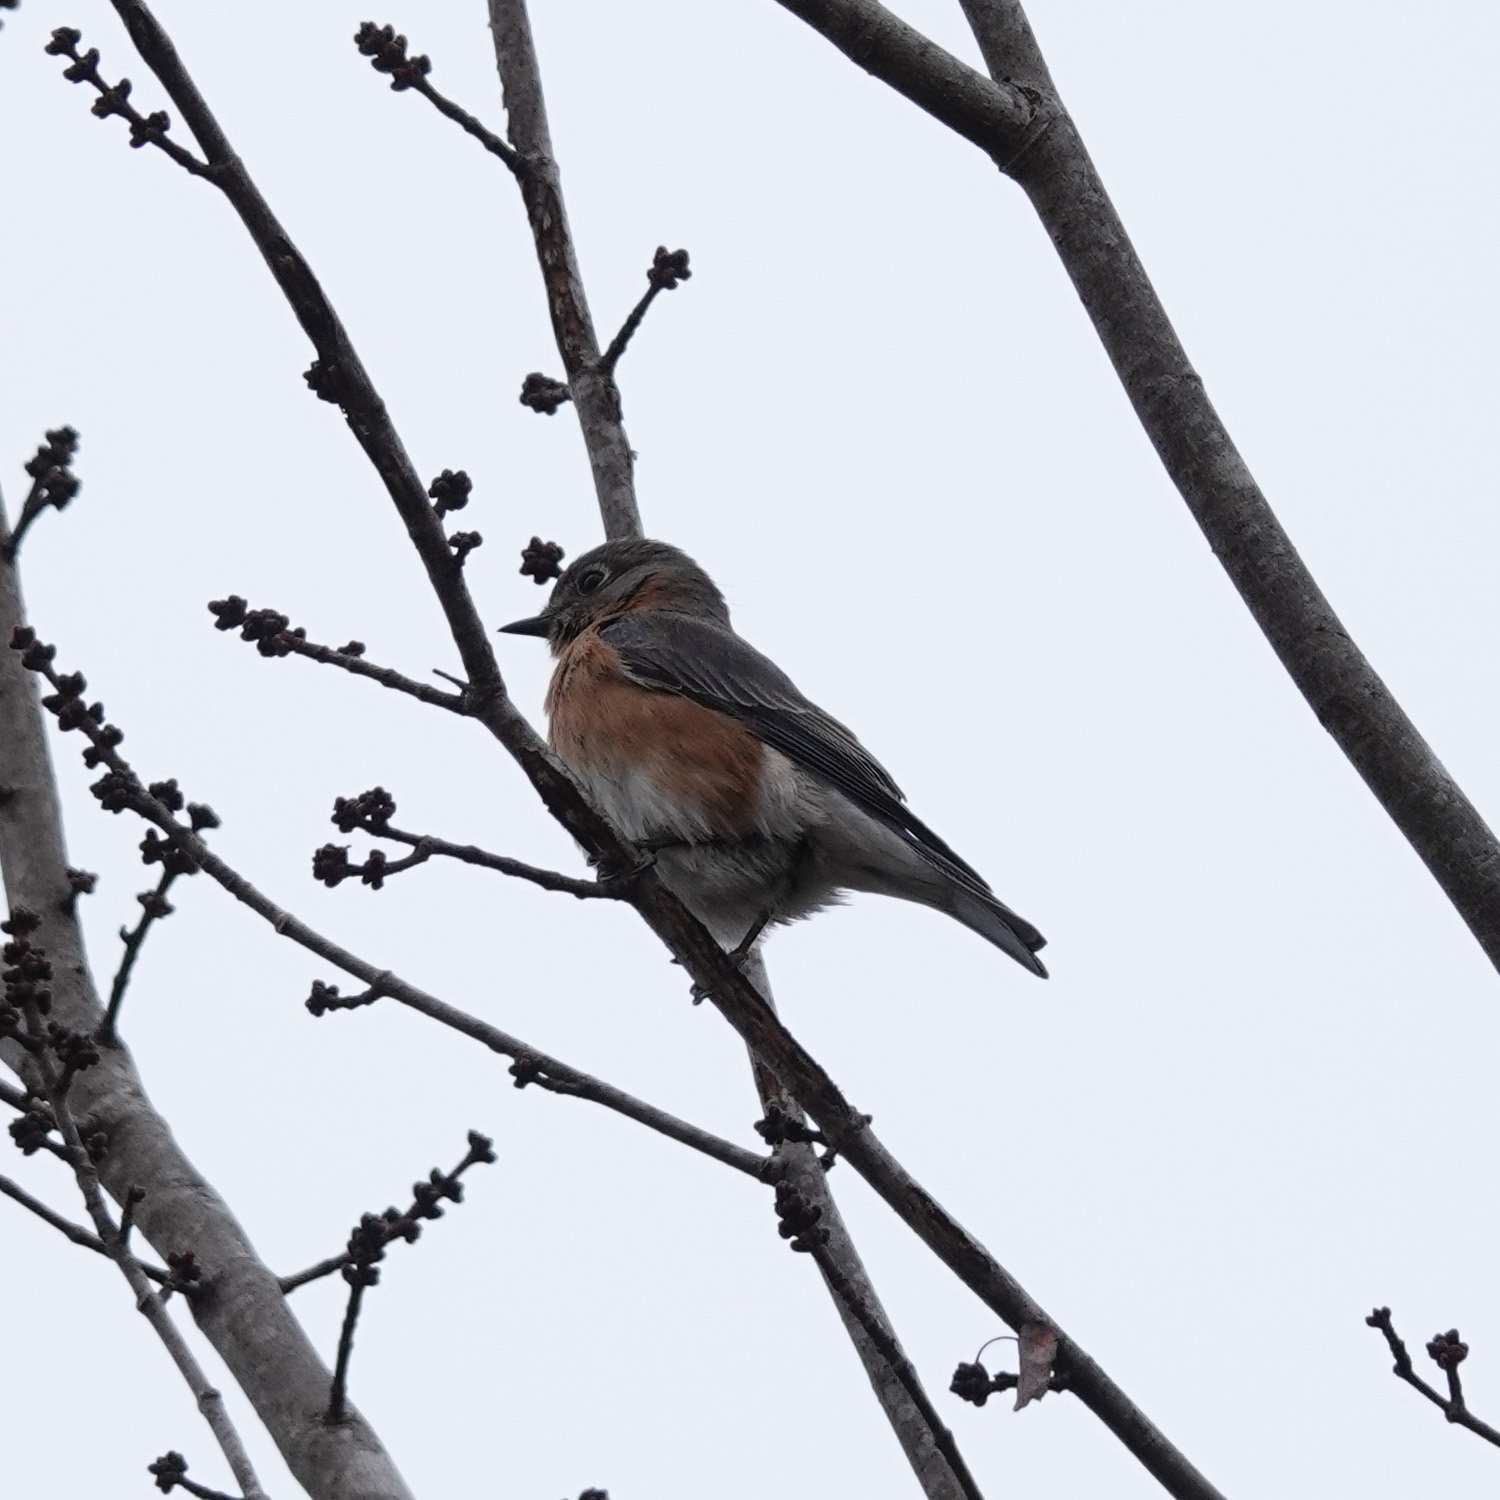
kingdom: Animalia
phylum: Chordata
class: Aves
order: Passeriformes
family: Turdidae
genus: Sialia
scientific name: Sialia sialis
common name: Eastern bluebird
